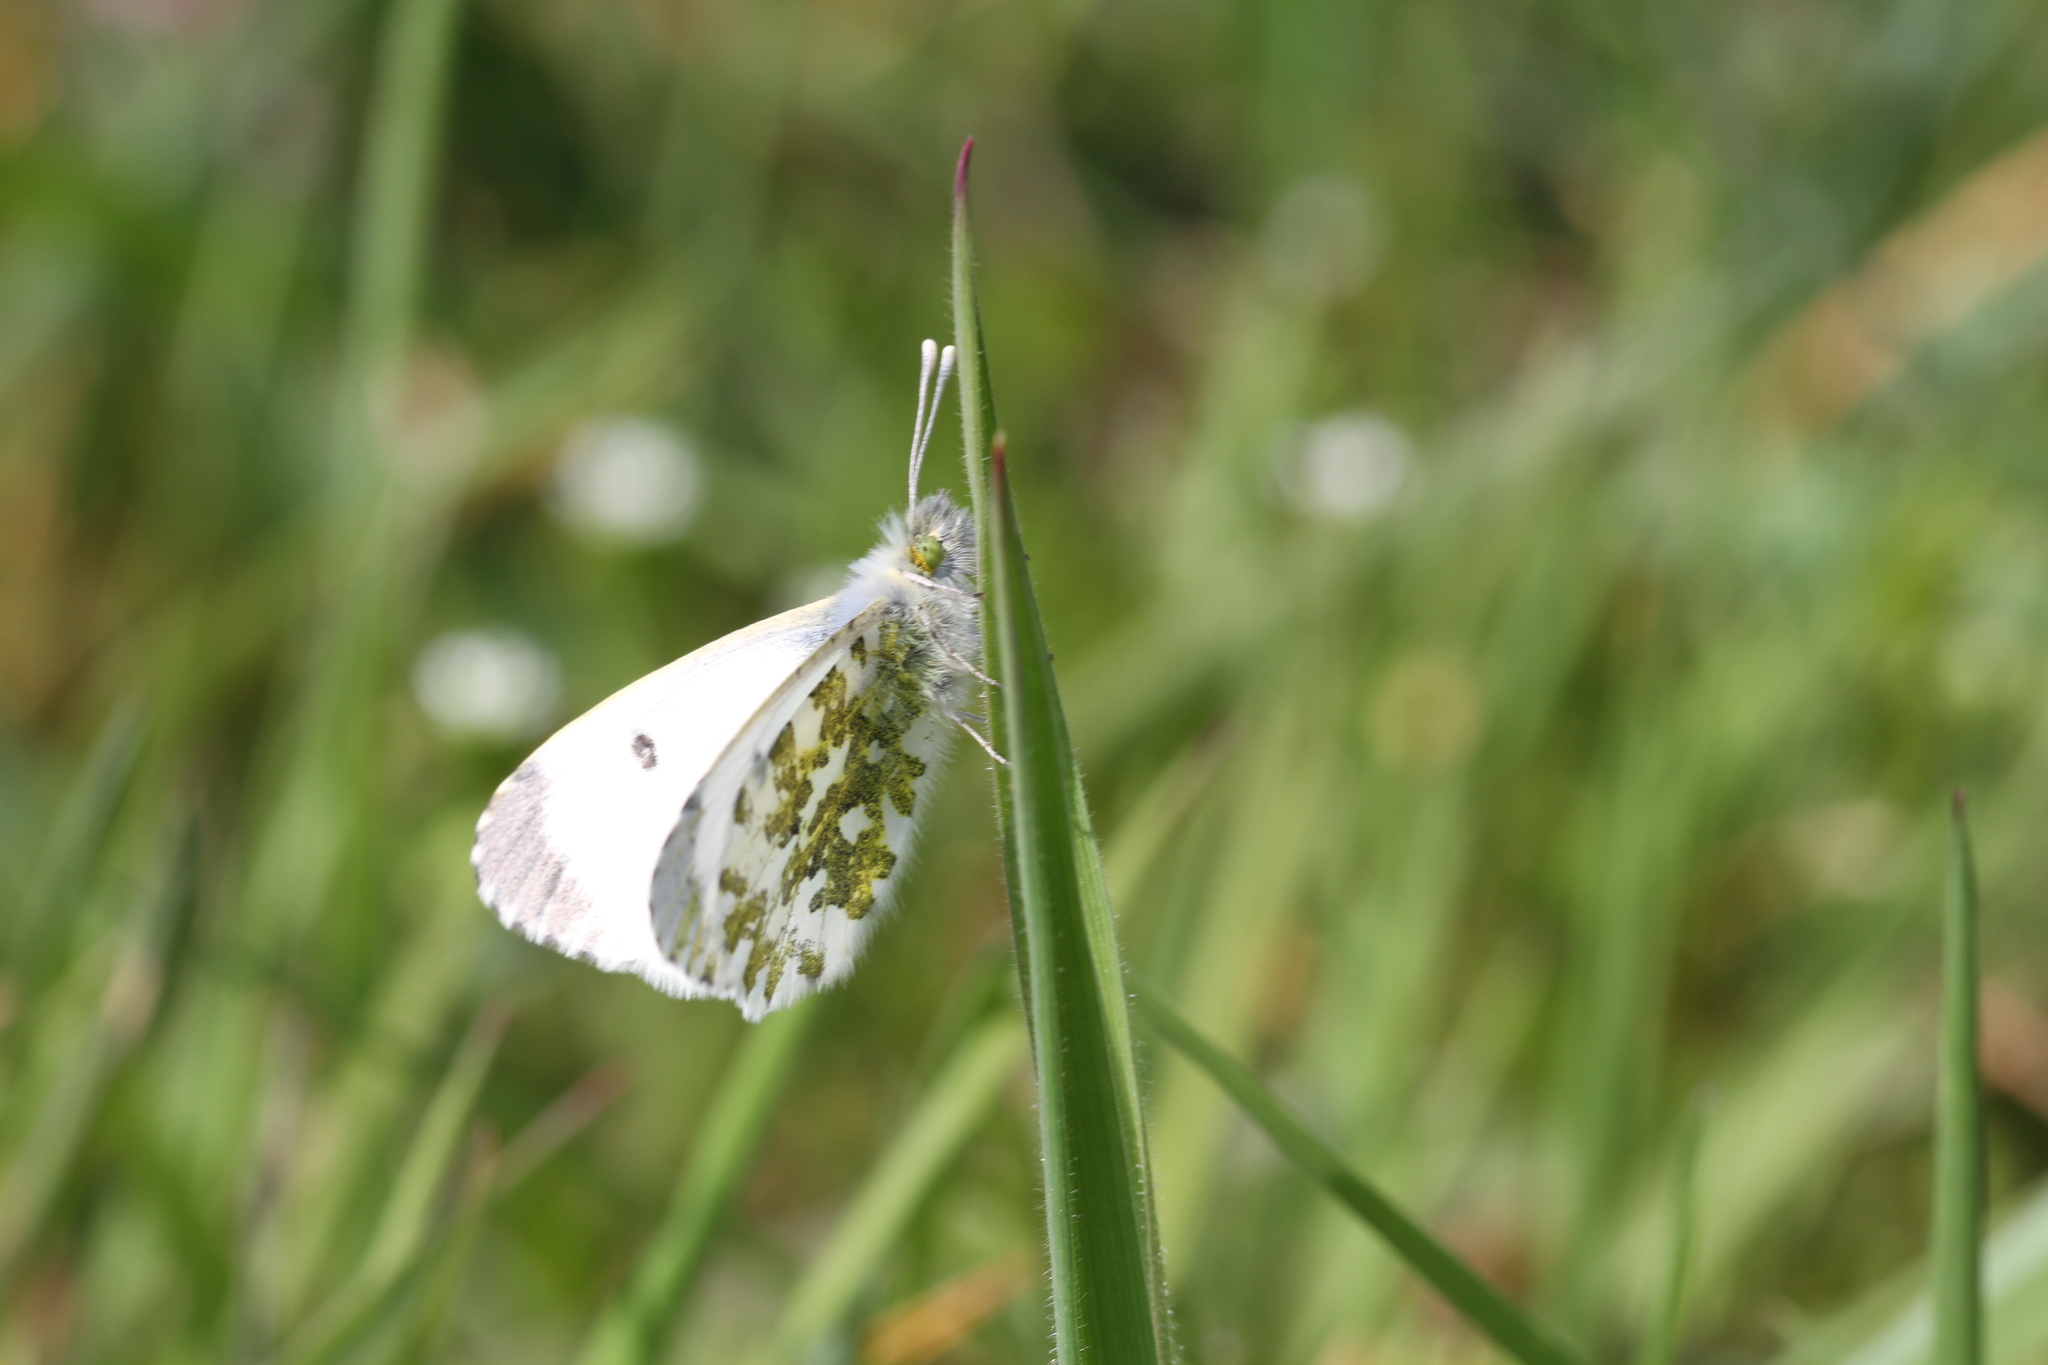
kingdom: Animalia
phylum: Arthropoda
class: Insecta
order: Lepidoptera
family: Pieridae
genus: Anthocharis
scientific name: Anthocharis cardamines
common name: Orange-tip
